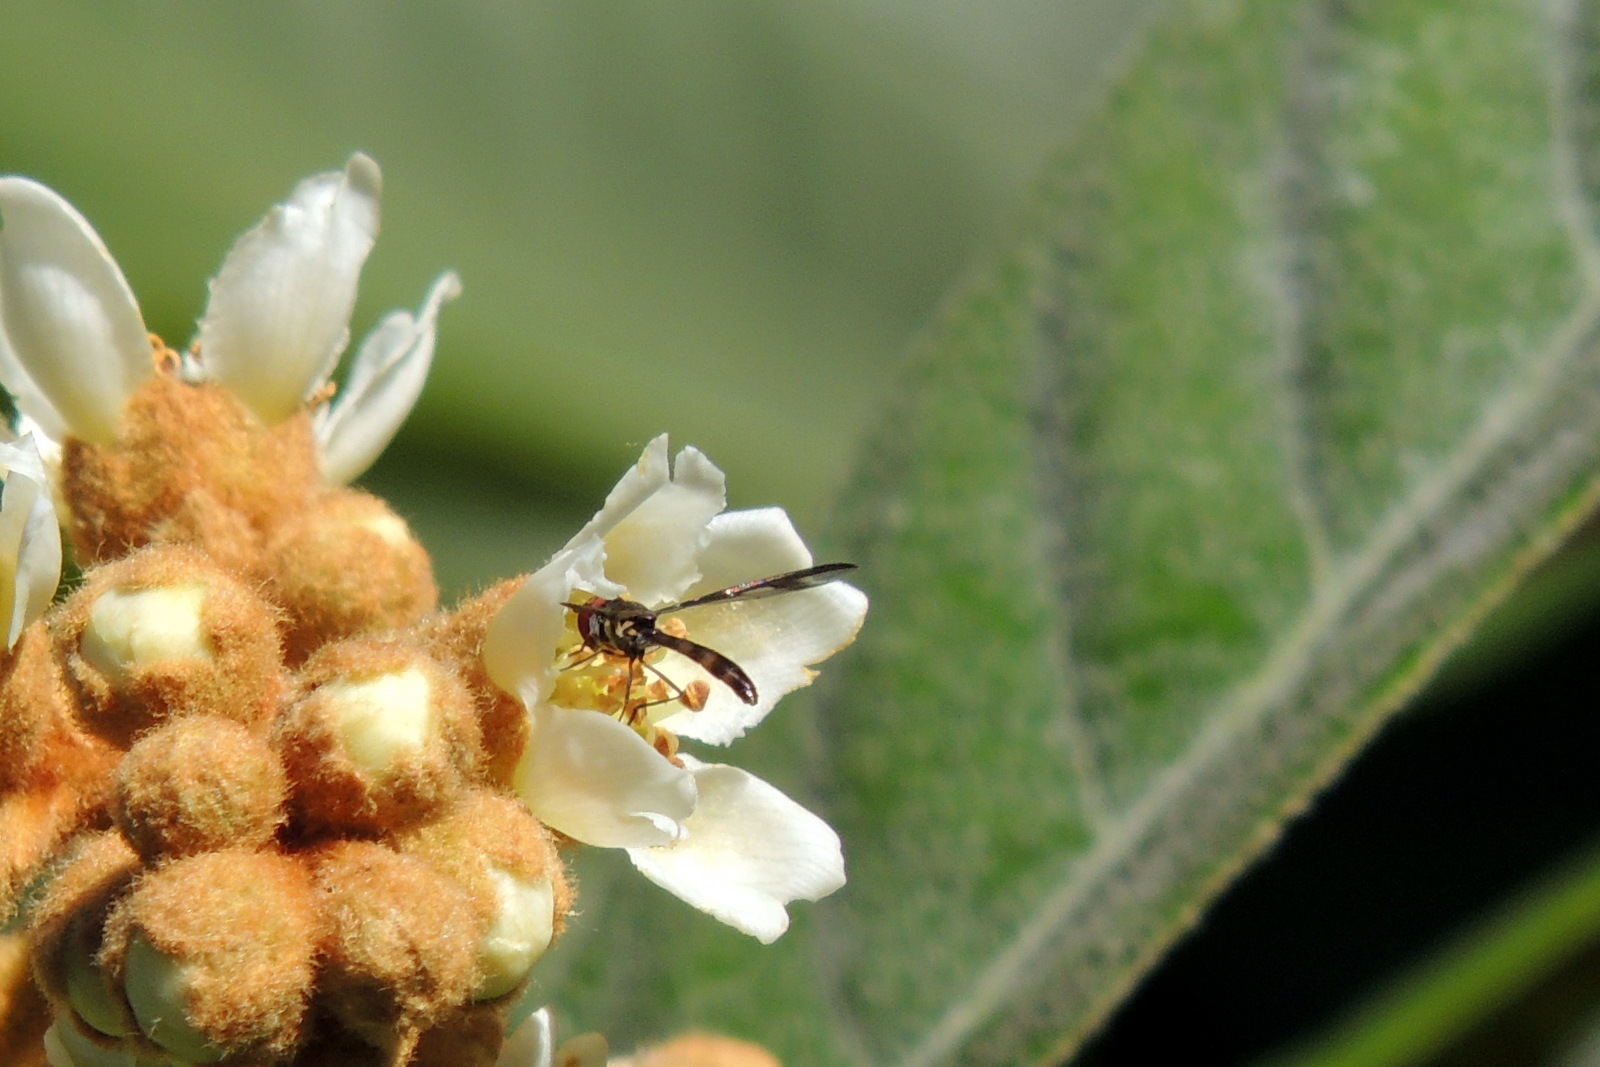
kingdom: Animalia
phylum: Arthropoda
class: Insecta
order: Diptera
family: Syrphidae
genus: Ocyptamus
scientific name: Ocyptamus fuscipennis
